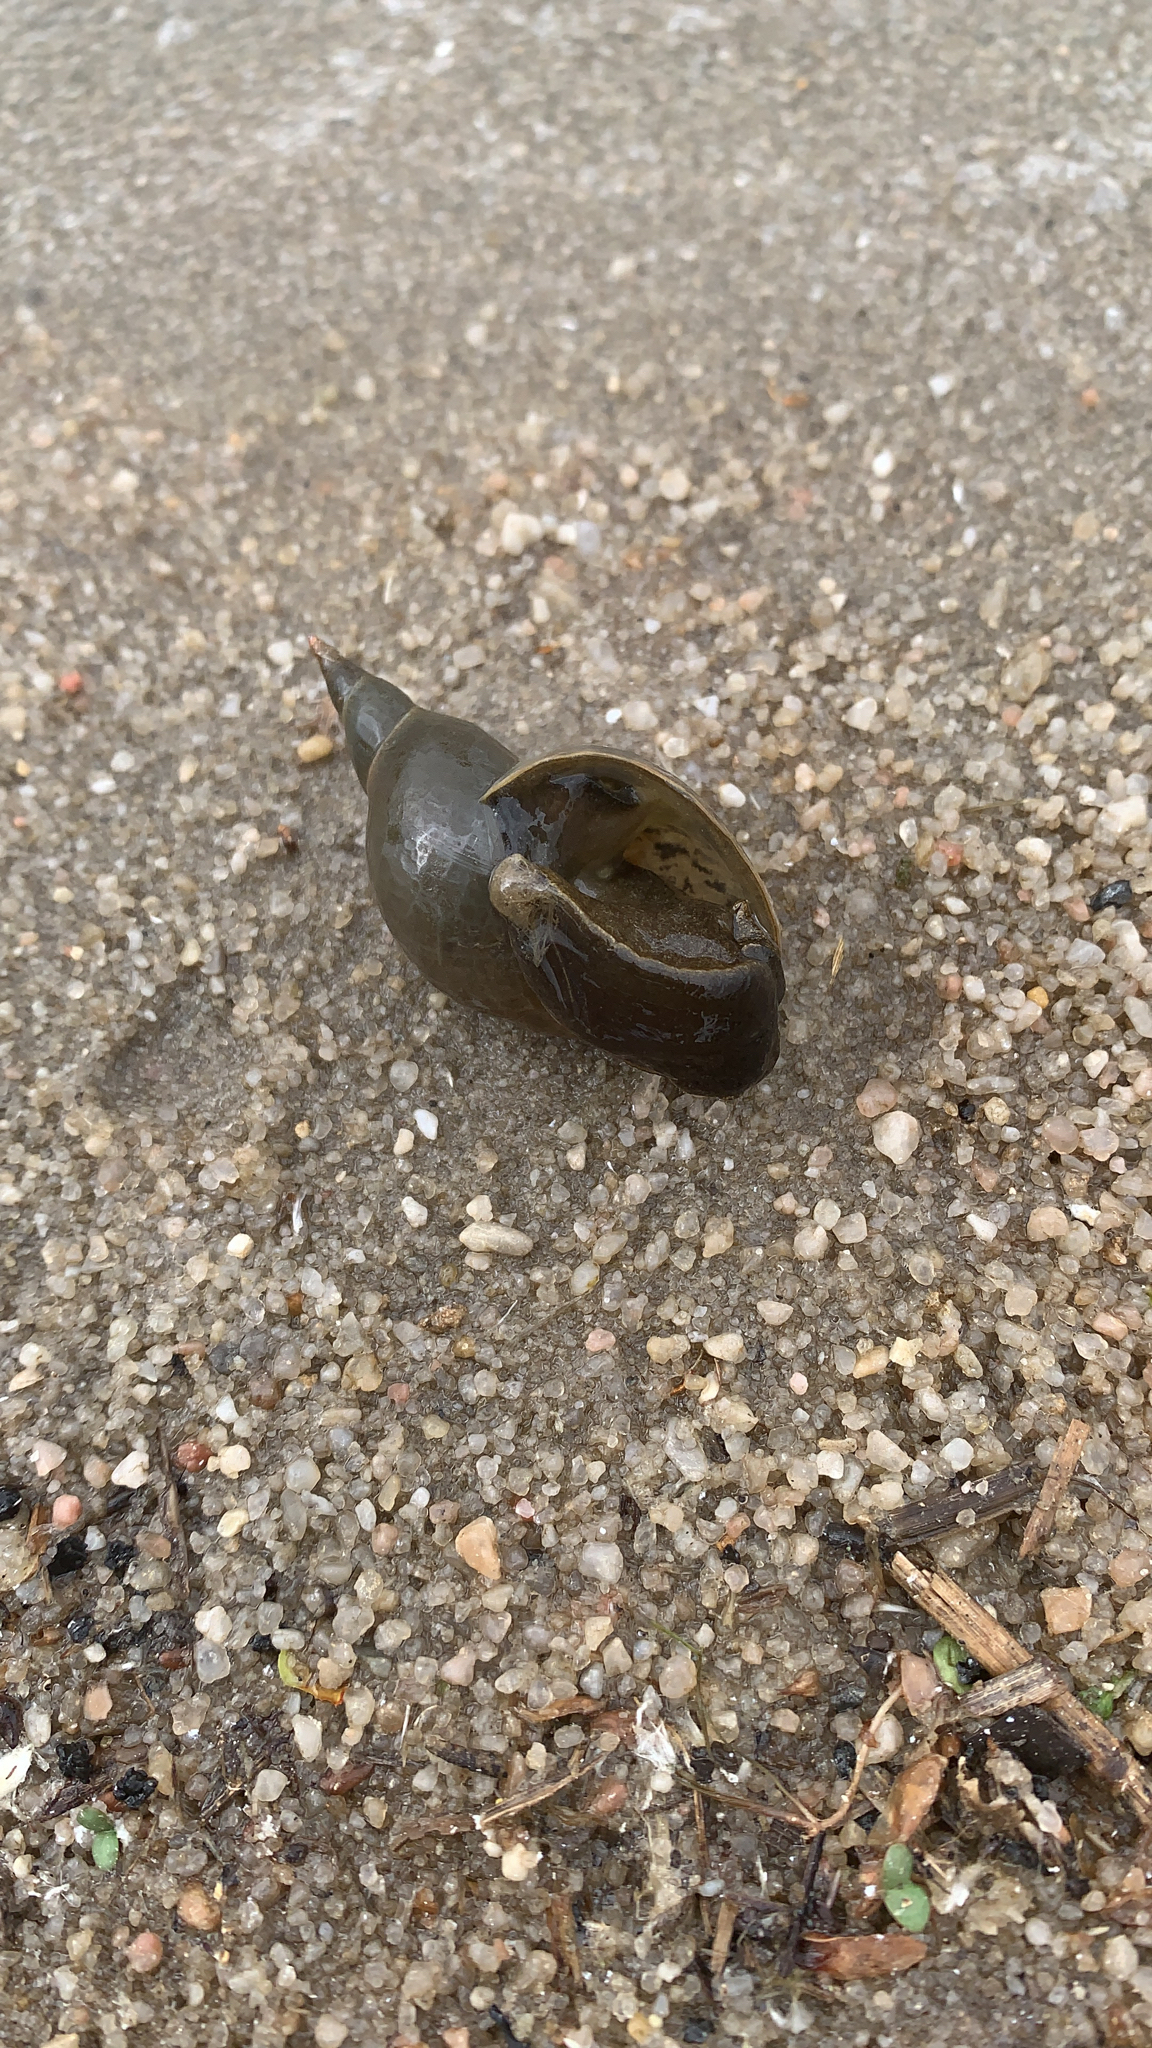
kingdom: Animalia
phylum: Mollusca
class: Gastropoda
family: Lymnaeidae
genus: Lymnaea
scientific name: Lymnaea stagnalis
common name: Great pond snail
